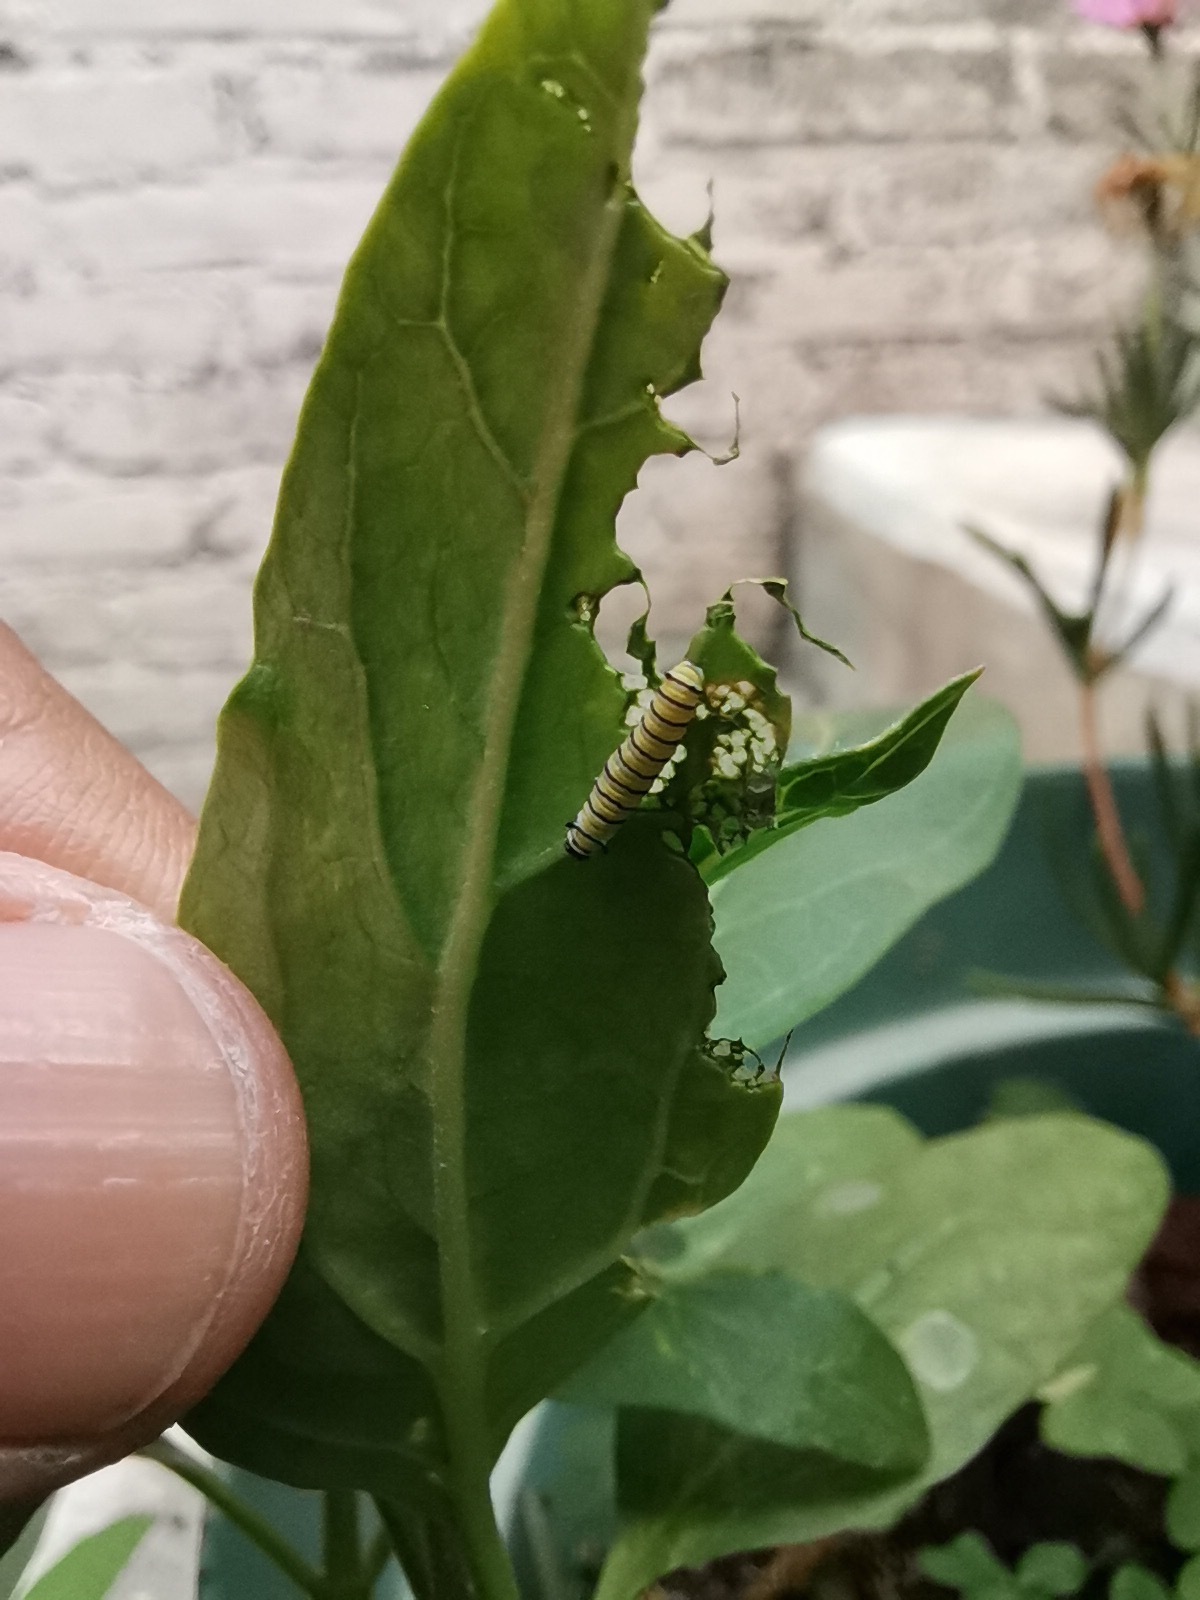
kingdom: Animalia
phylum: Arthropoda
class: Insecta
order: Lepidoptera
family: Nymphalidae
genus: Danaus
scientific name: Danaus plexippus
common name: Monarch
